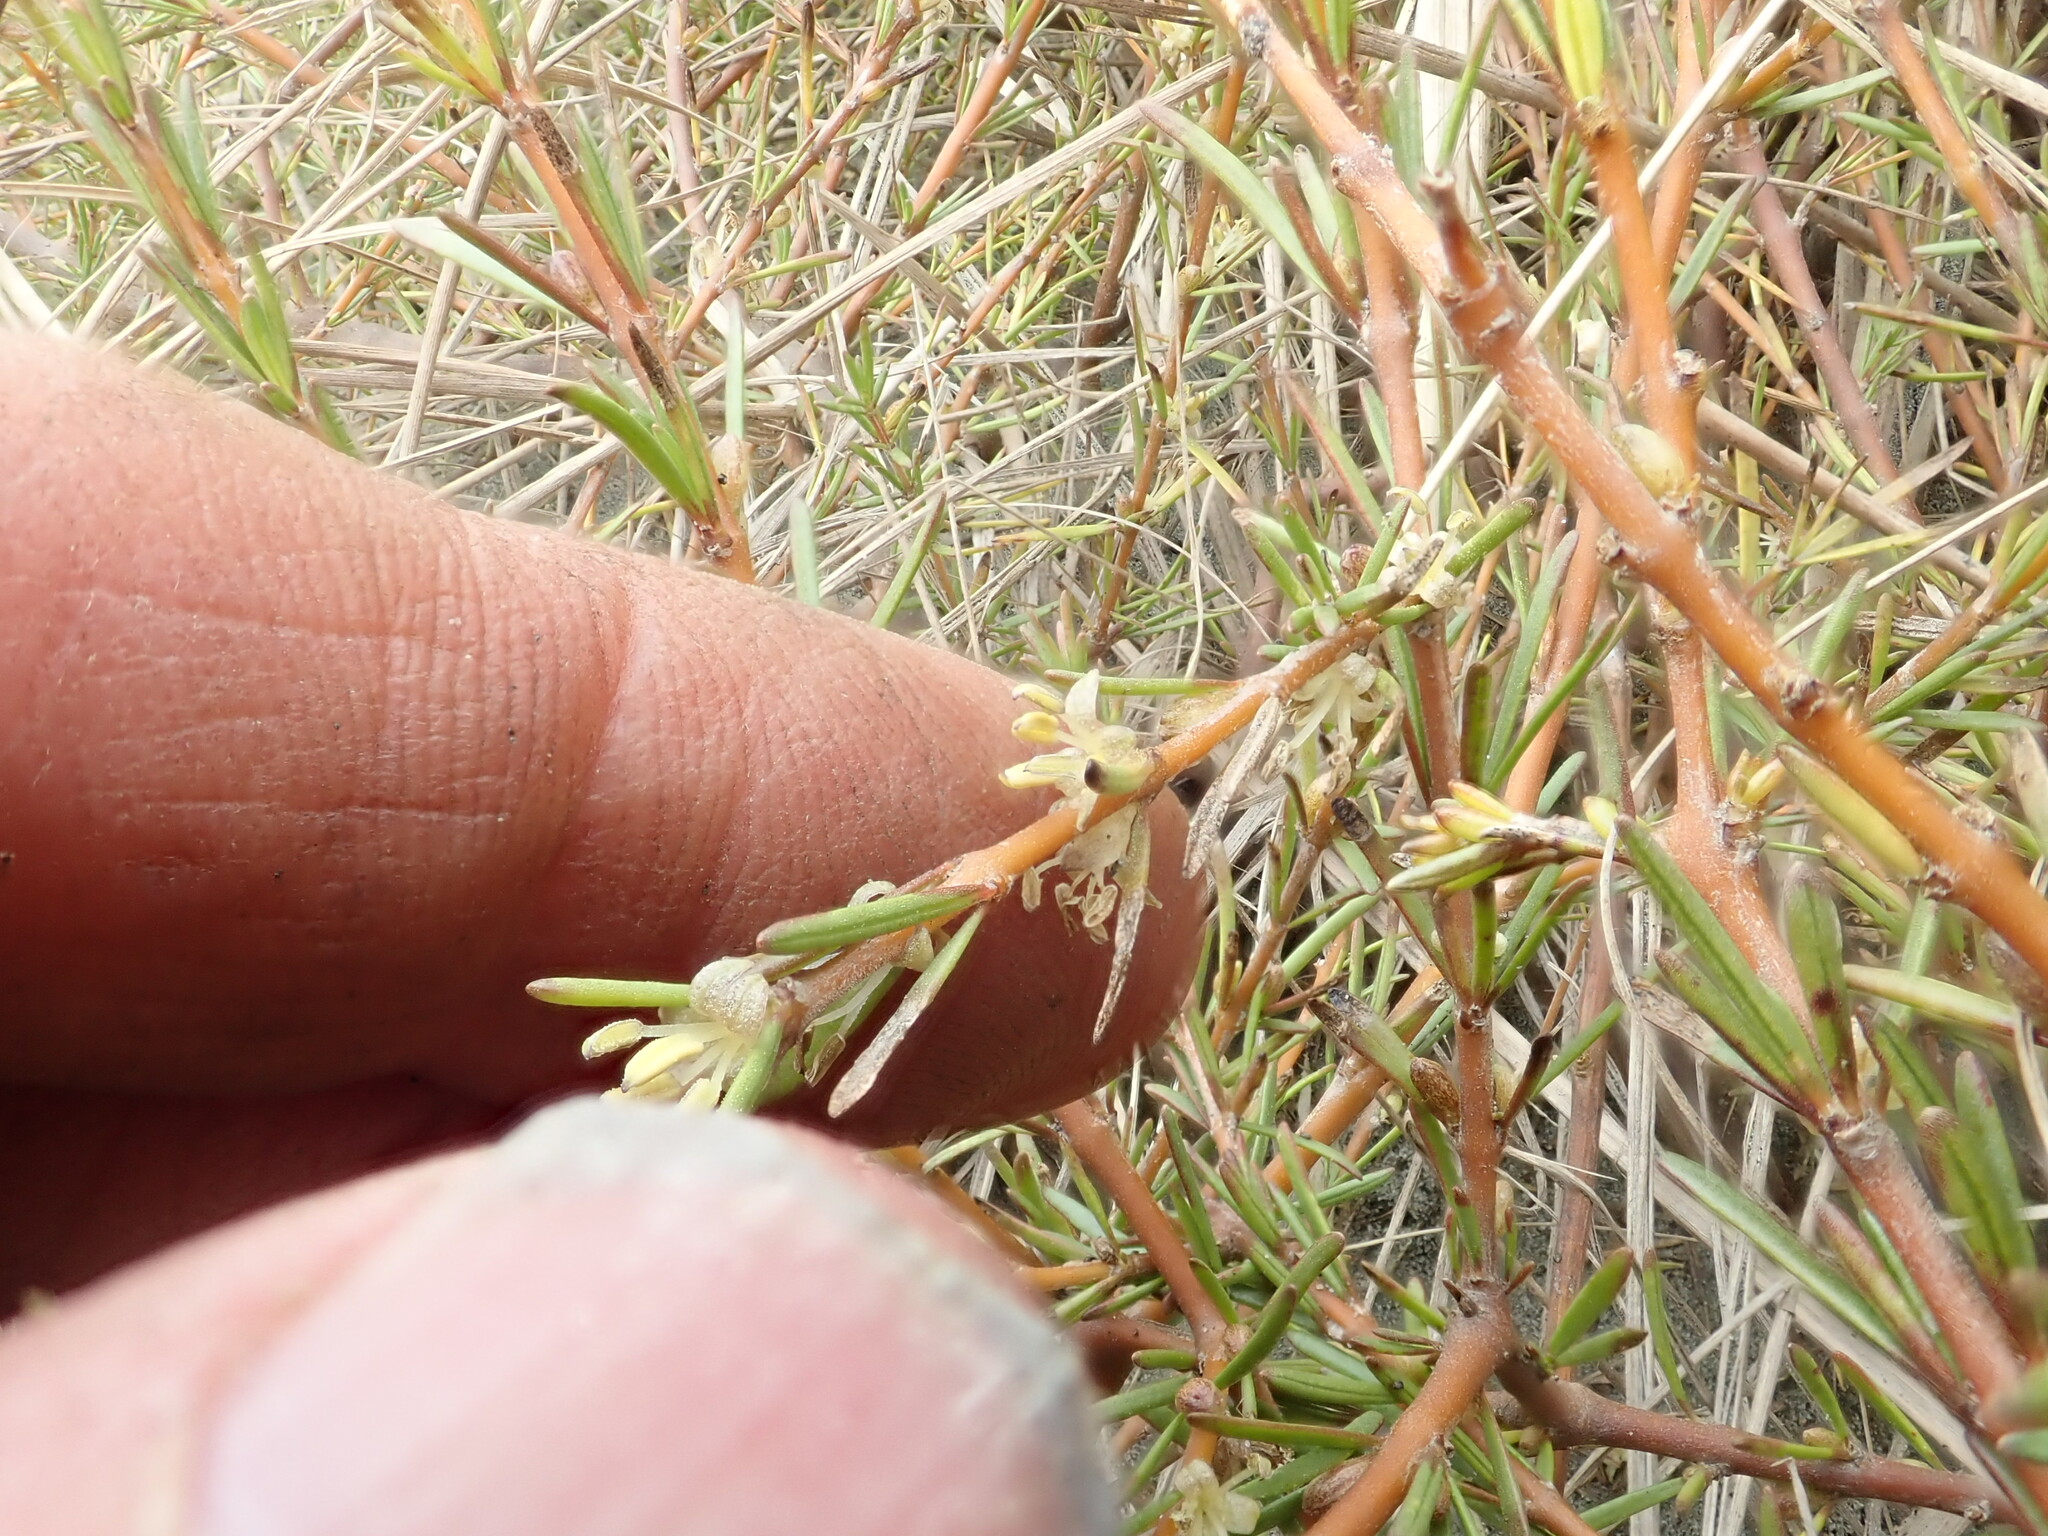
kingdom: Plantae
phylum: Tracheophyta
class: Magnoliopsida
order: Gentianales
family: Rubiaceae
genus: Coprosma
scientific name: Coprosma acerosa
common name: Sand coprosma
